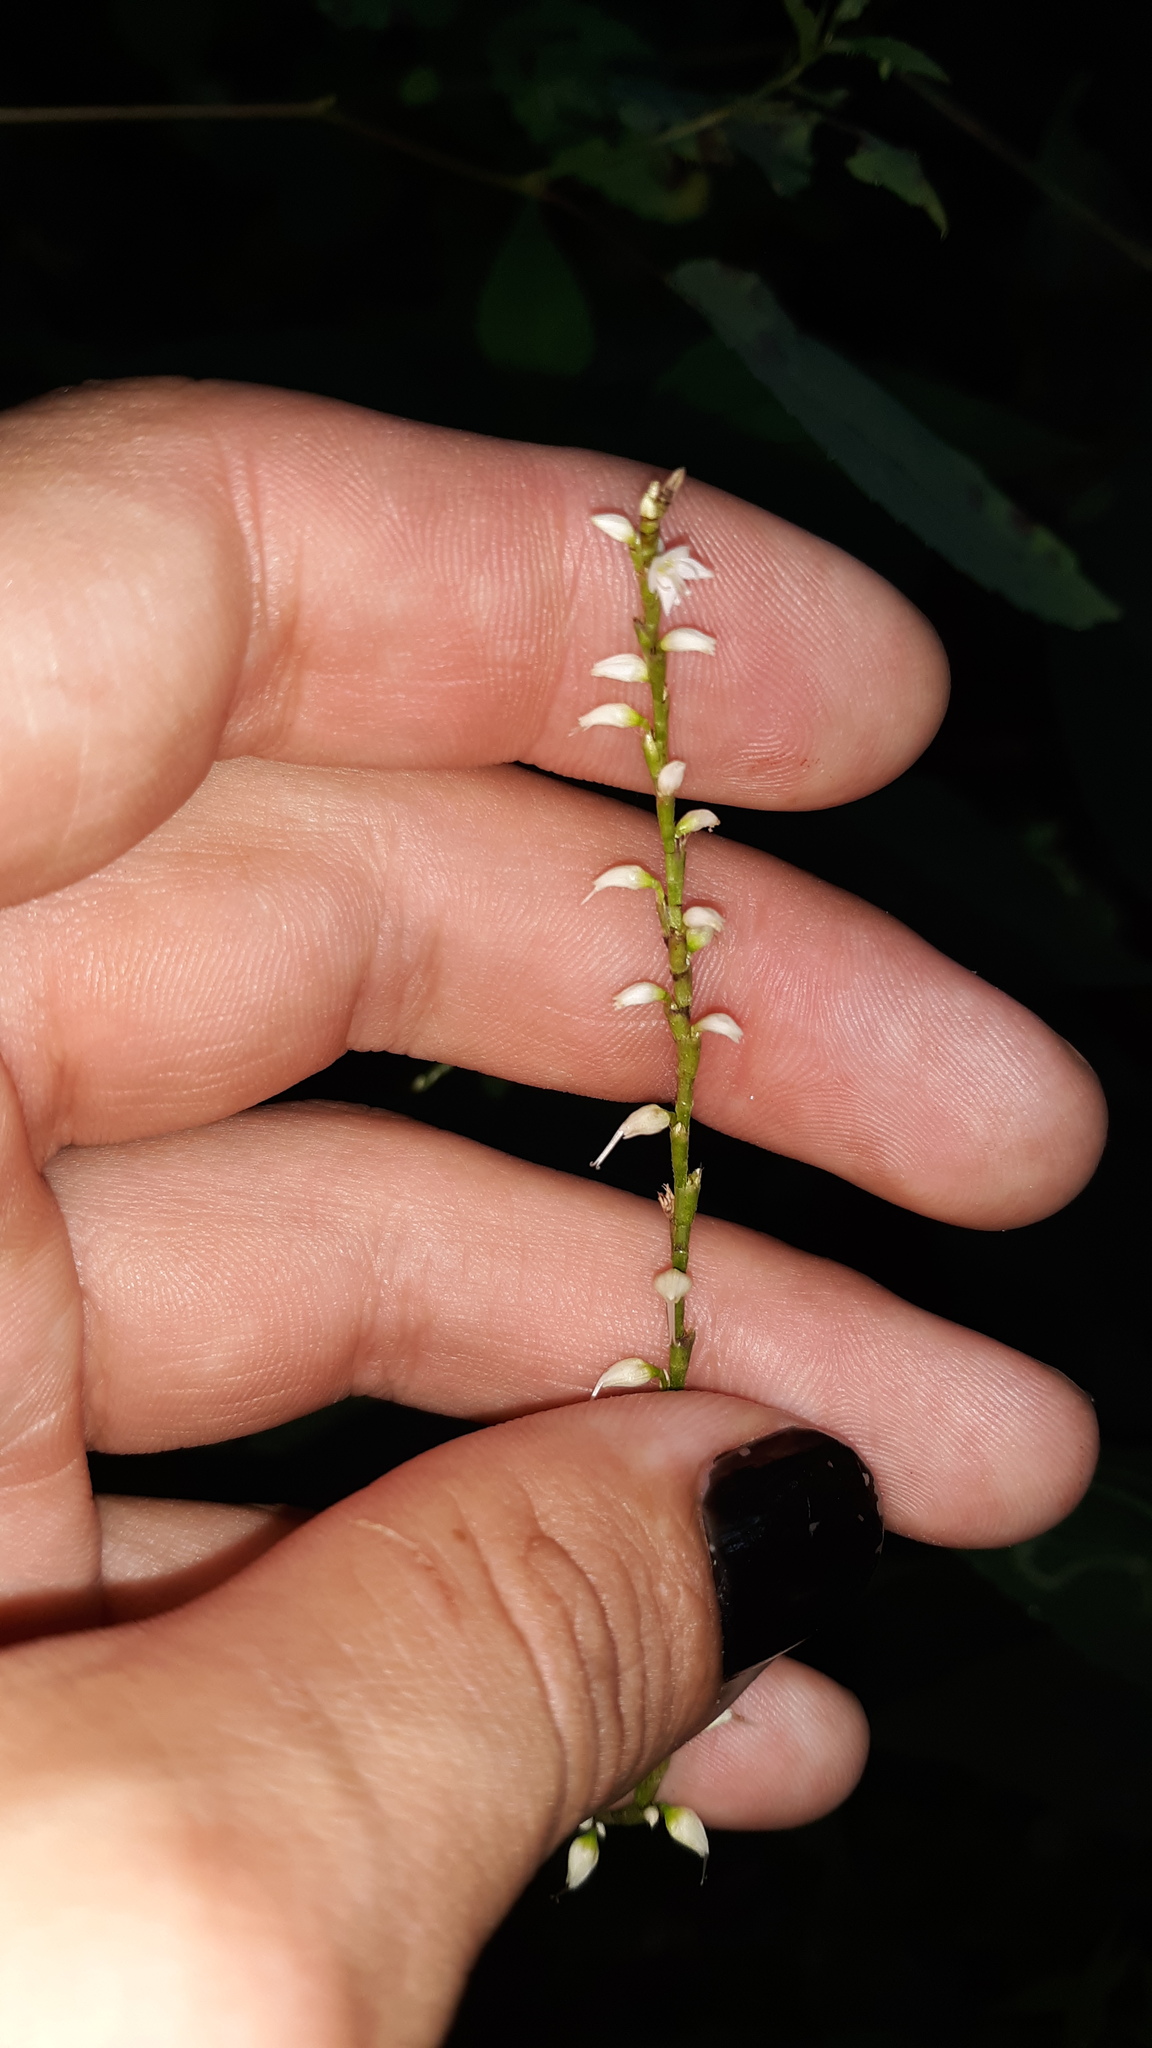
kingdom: Plantae
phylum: Tracheophyta
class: Magnoliopsida
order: Caryophyllales
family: Polygonaceae
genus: Persicaria
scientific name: Persicaria virginiana
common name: Jumpseed
